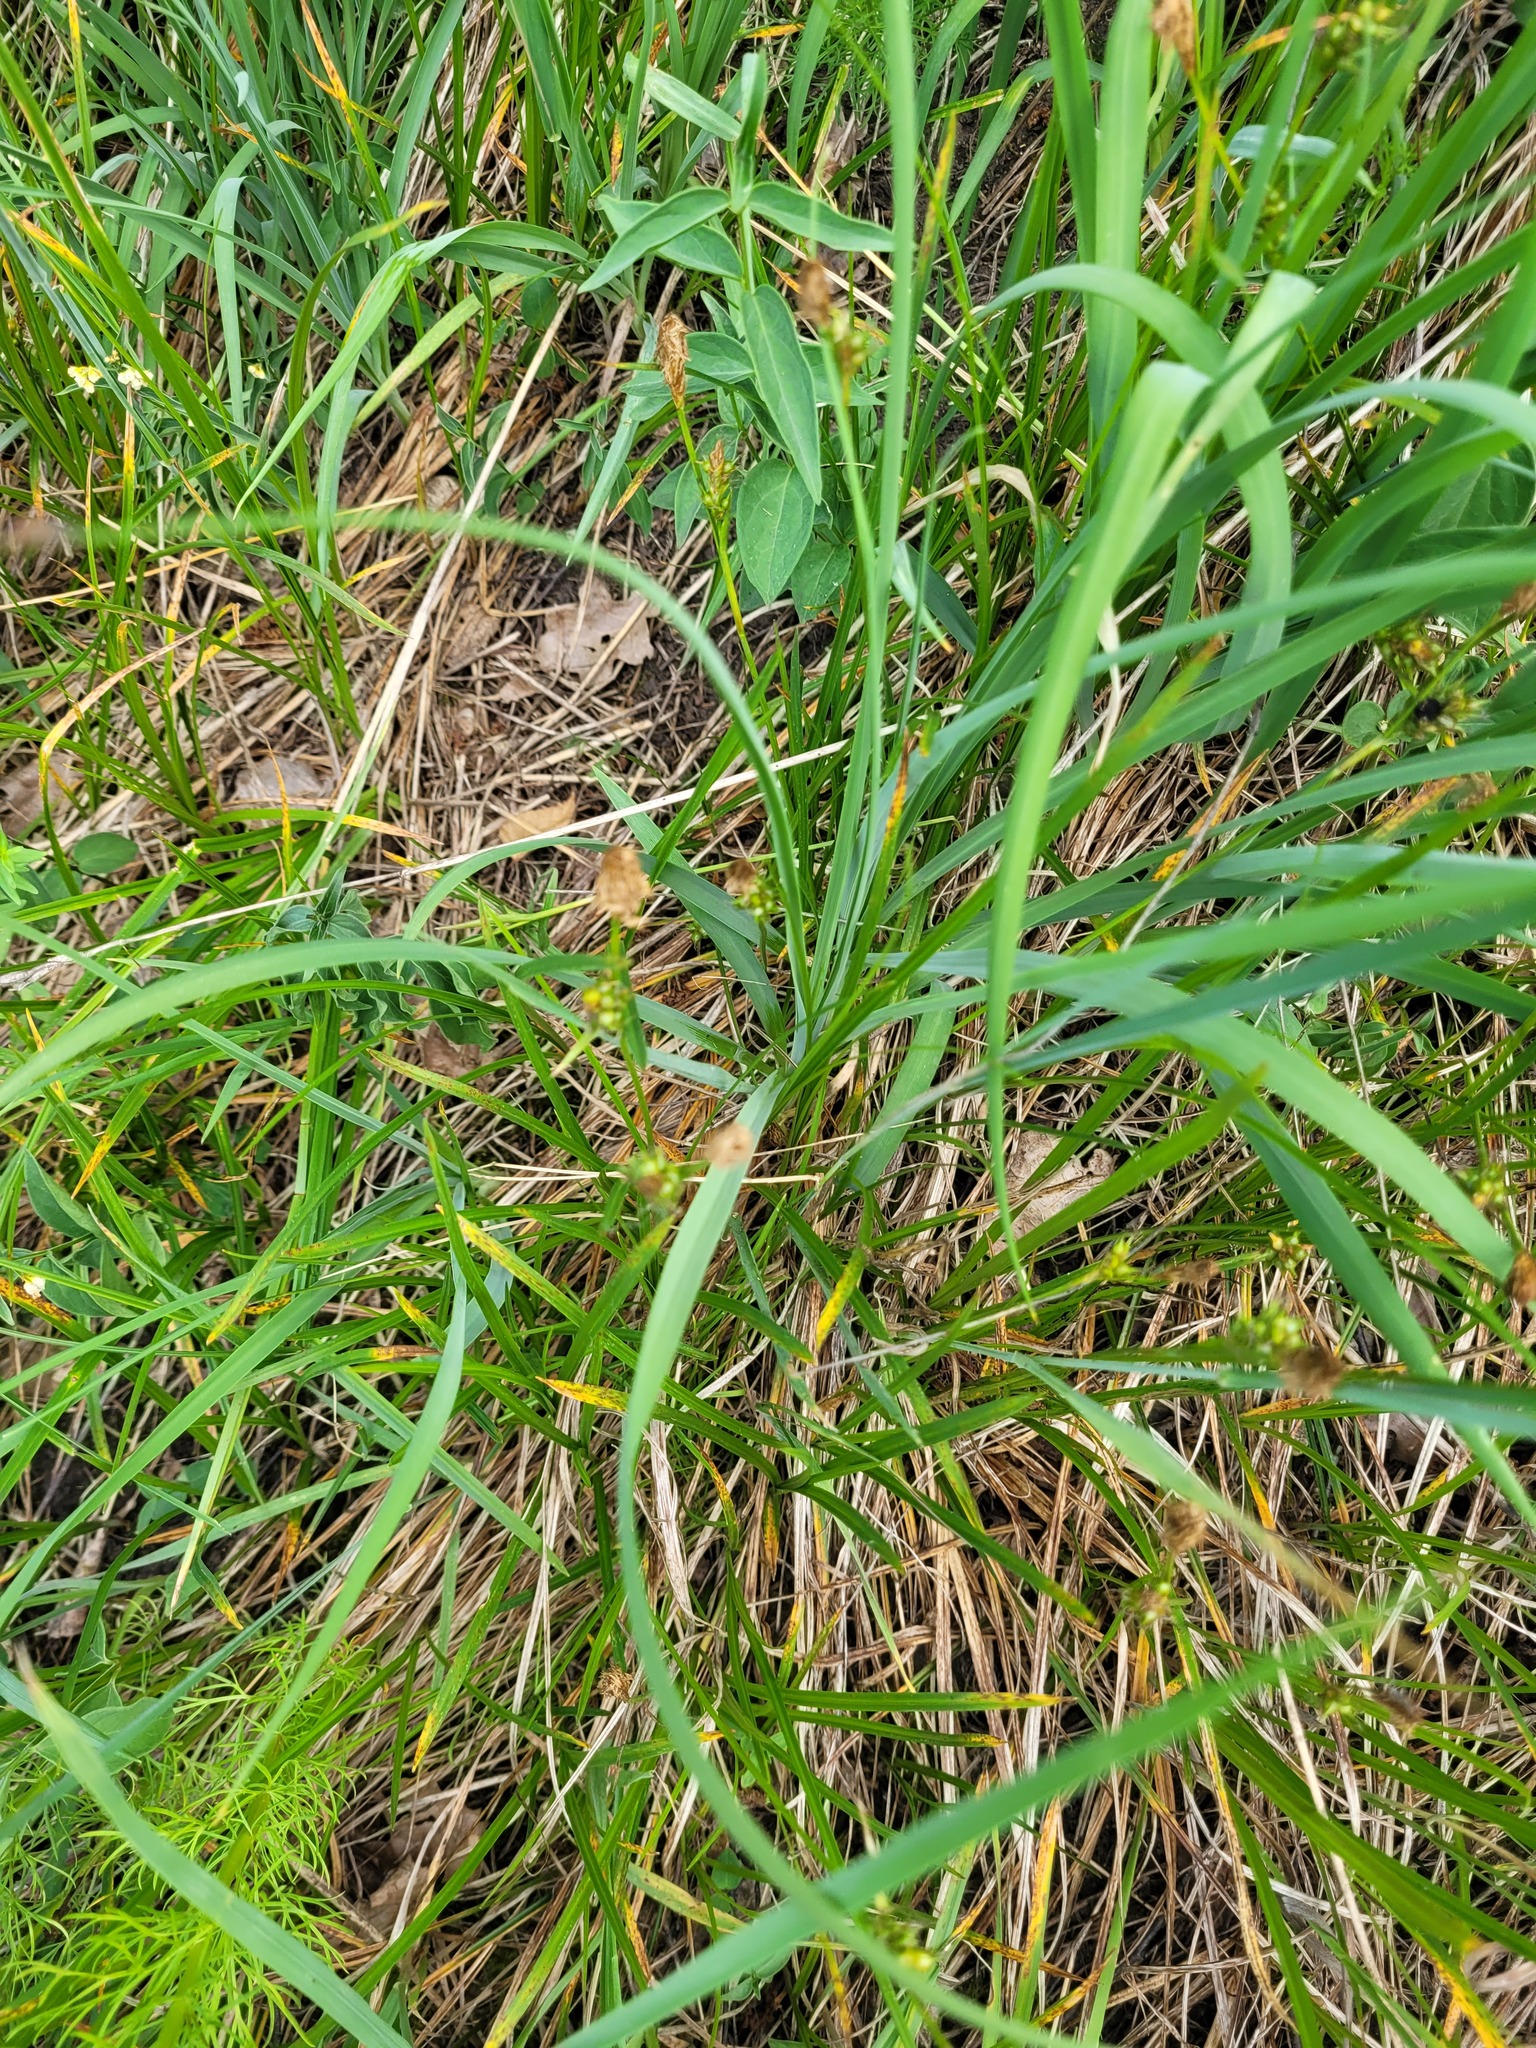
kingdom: Plantae
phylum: Tracheophyta
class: Liliopsida
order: Asparagales
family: Asparagaceae
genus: Anthericum
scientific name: Anthericum ramosum
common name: Branched st. bernard's-lily
